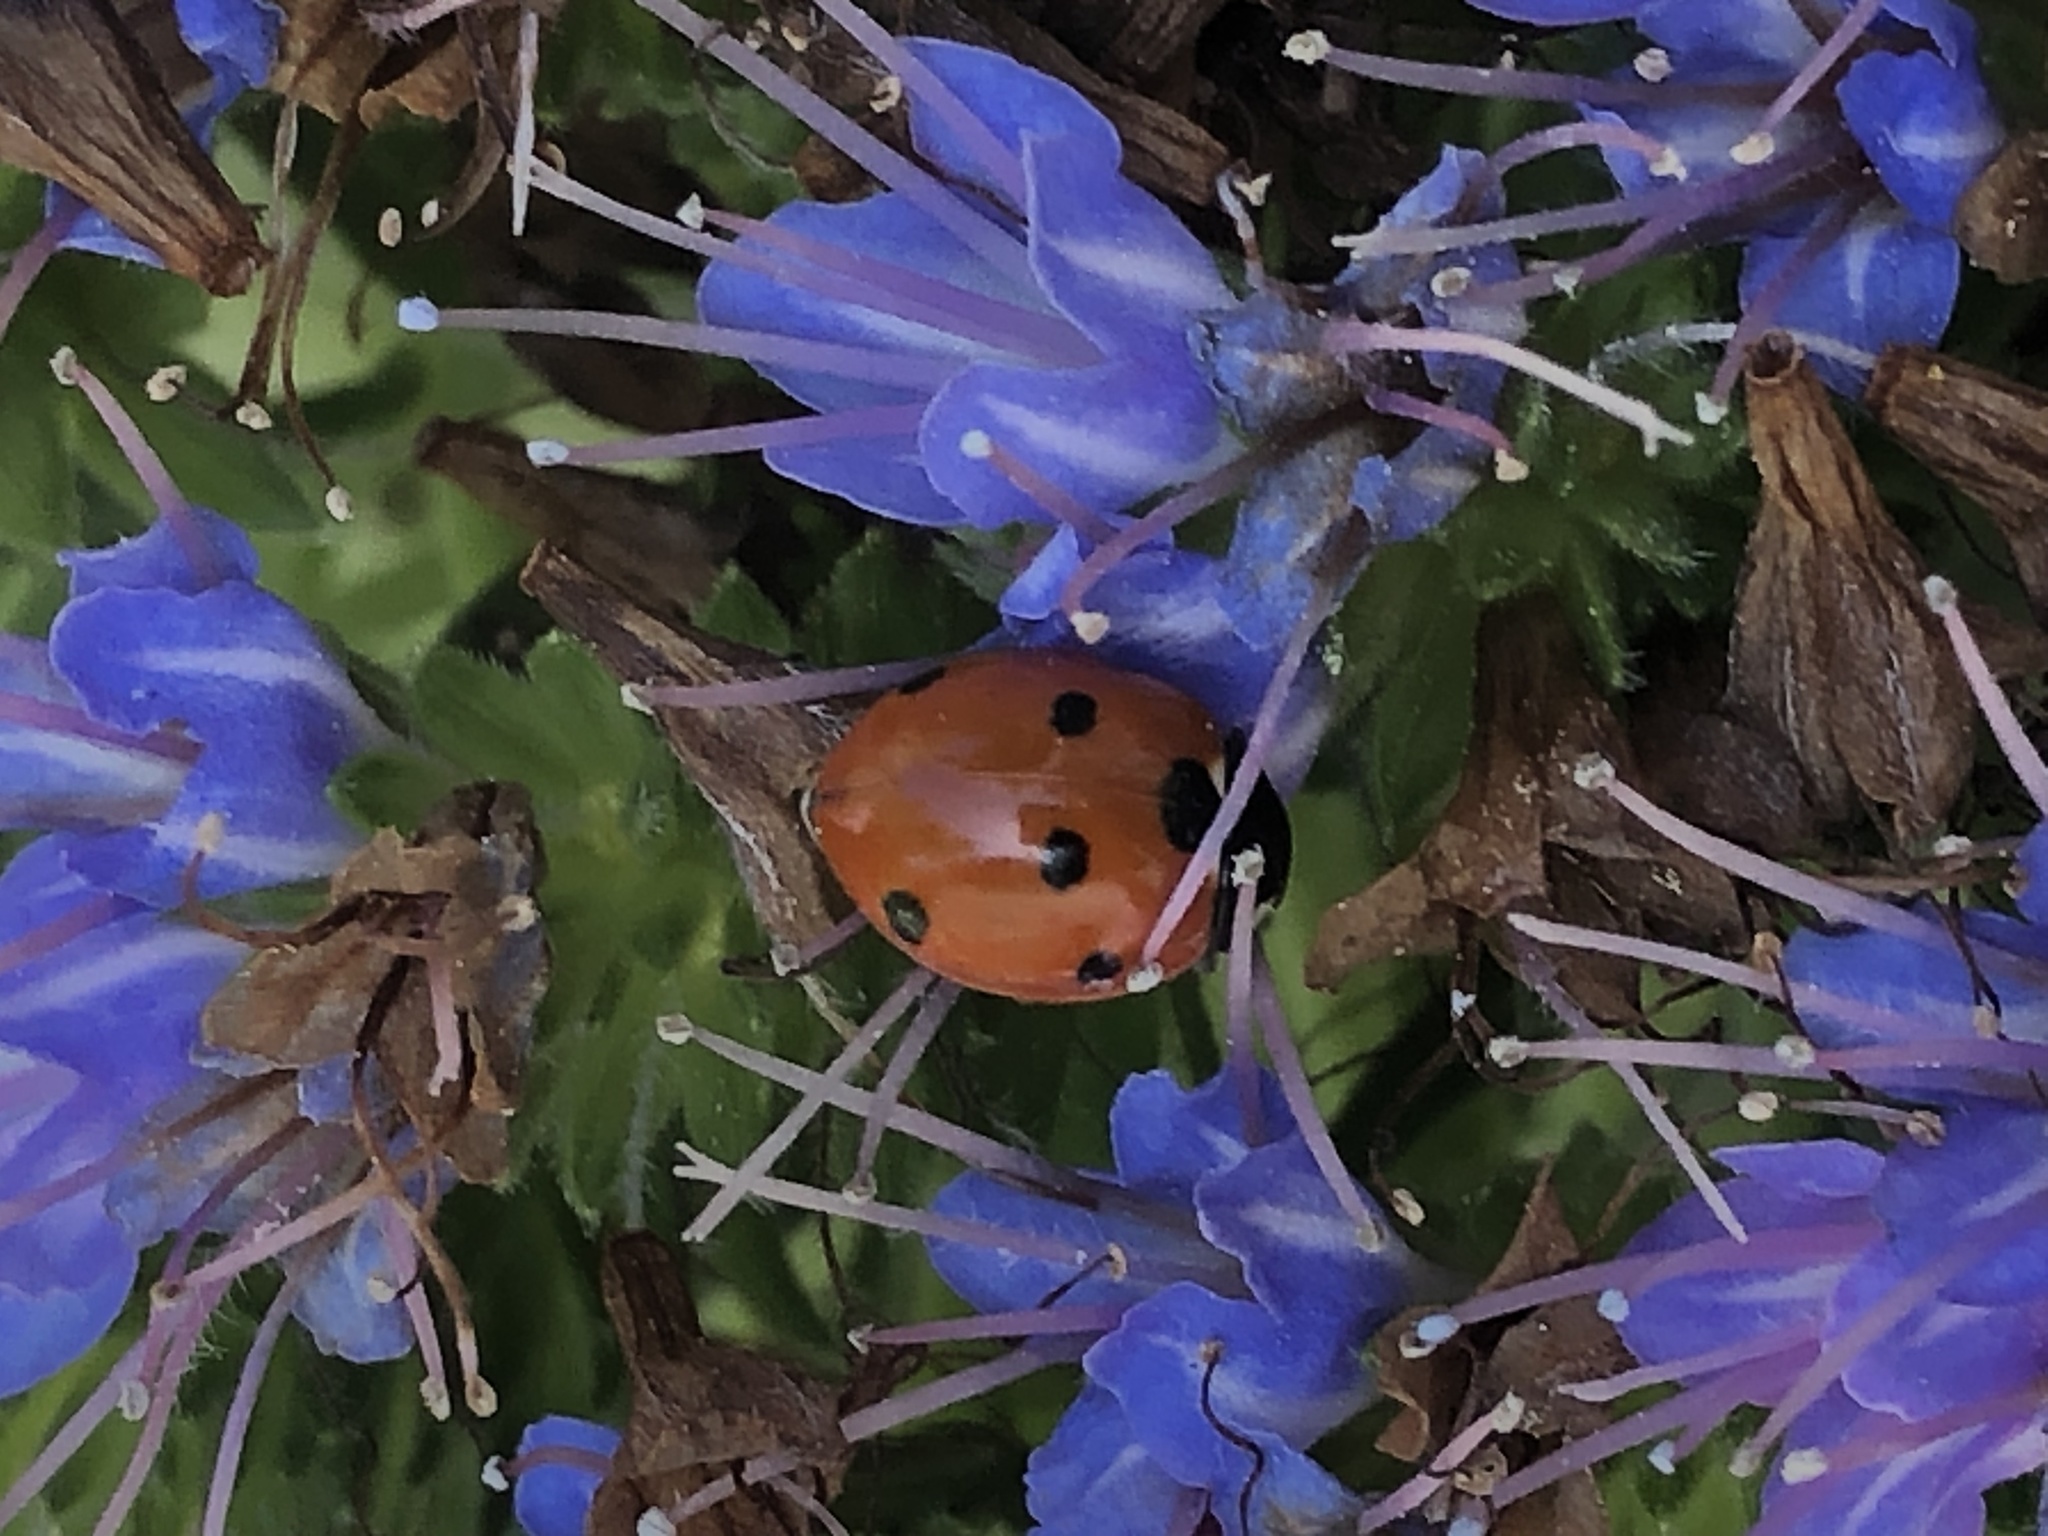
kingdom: Animalia
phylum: Arthropoda
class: Insecta
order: Coleoptera
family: Coccinellidae
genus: Coccinella
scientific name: Coccinella septempunctata
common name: Sevenspotted lady beetle
